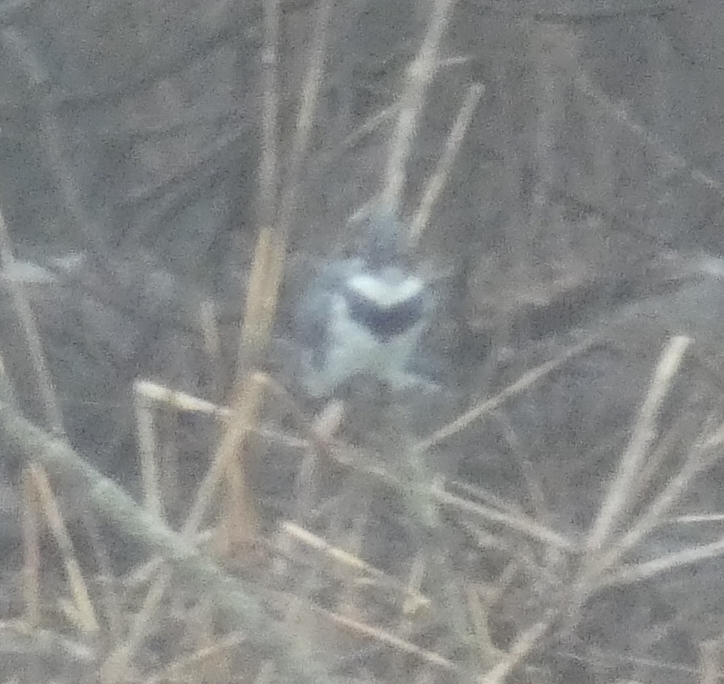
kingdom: Animalia
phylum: Chordata
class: Aves
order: Coraciiformes
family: Alcedinidae
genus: Megaceryle
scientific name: Megaceryle alcyon
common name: Belted kingfisher
